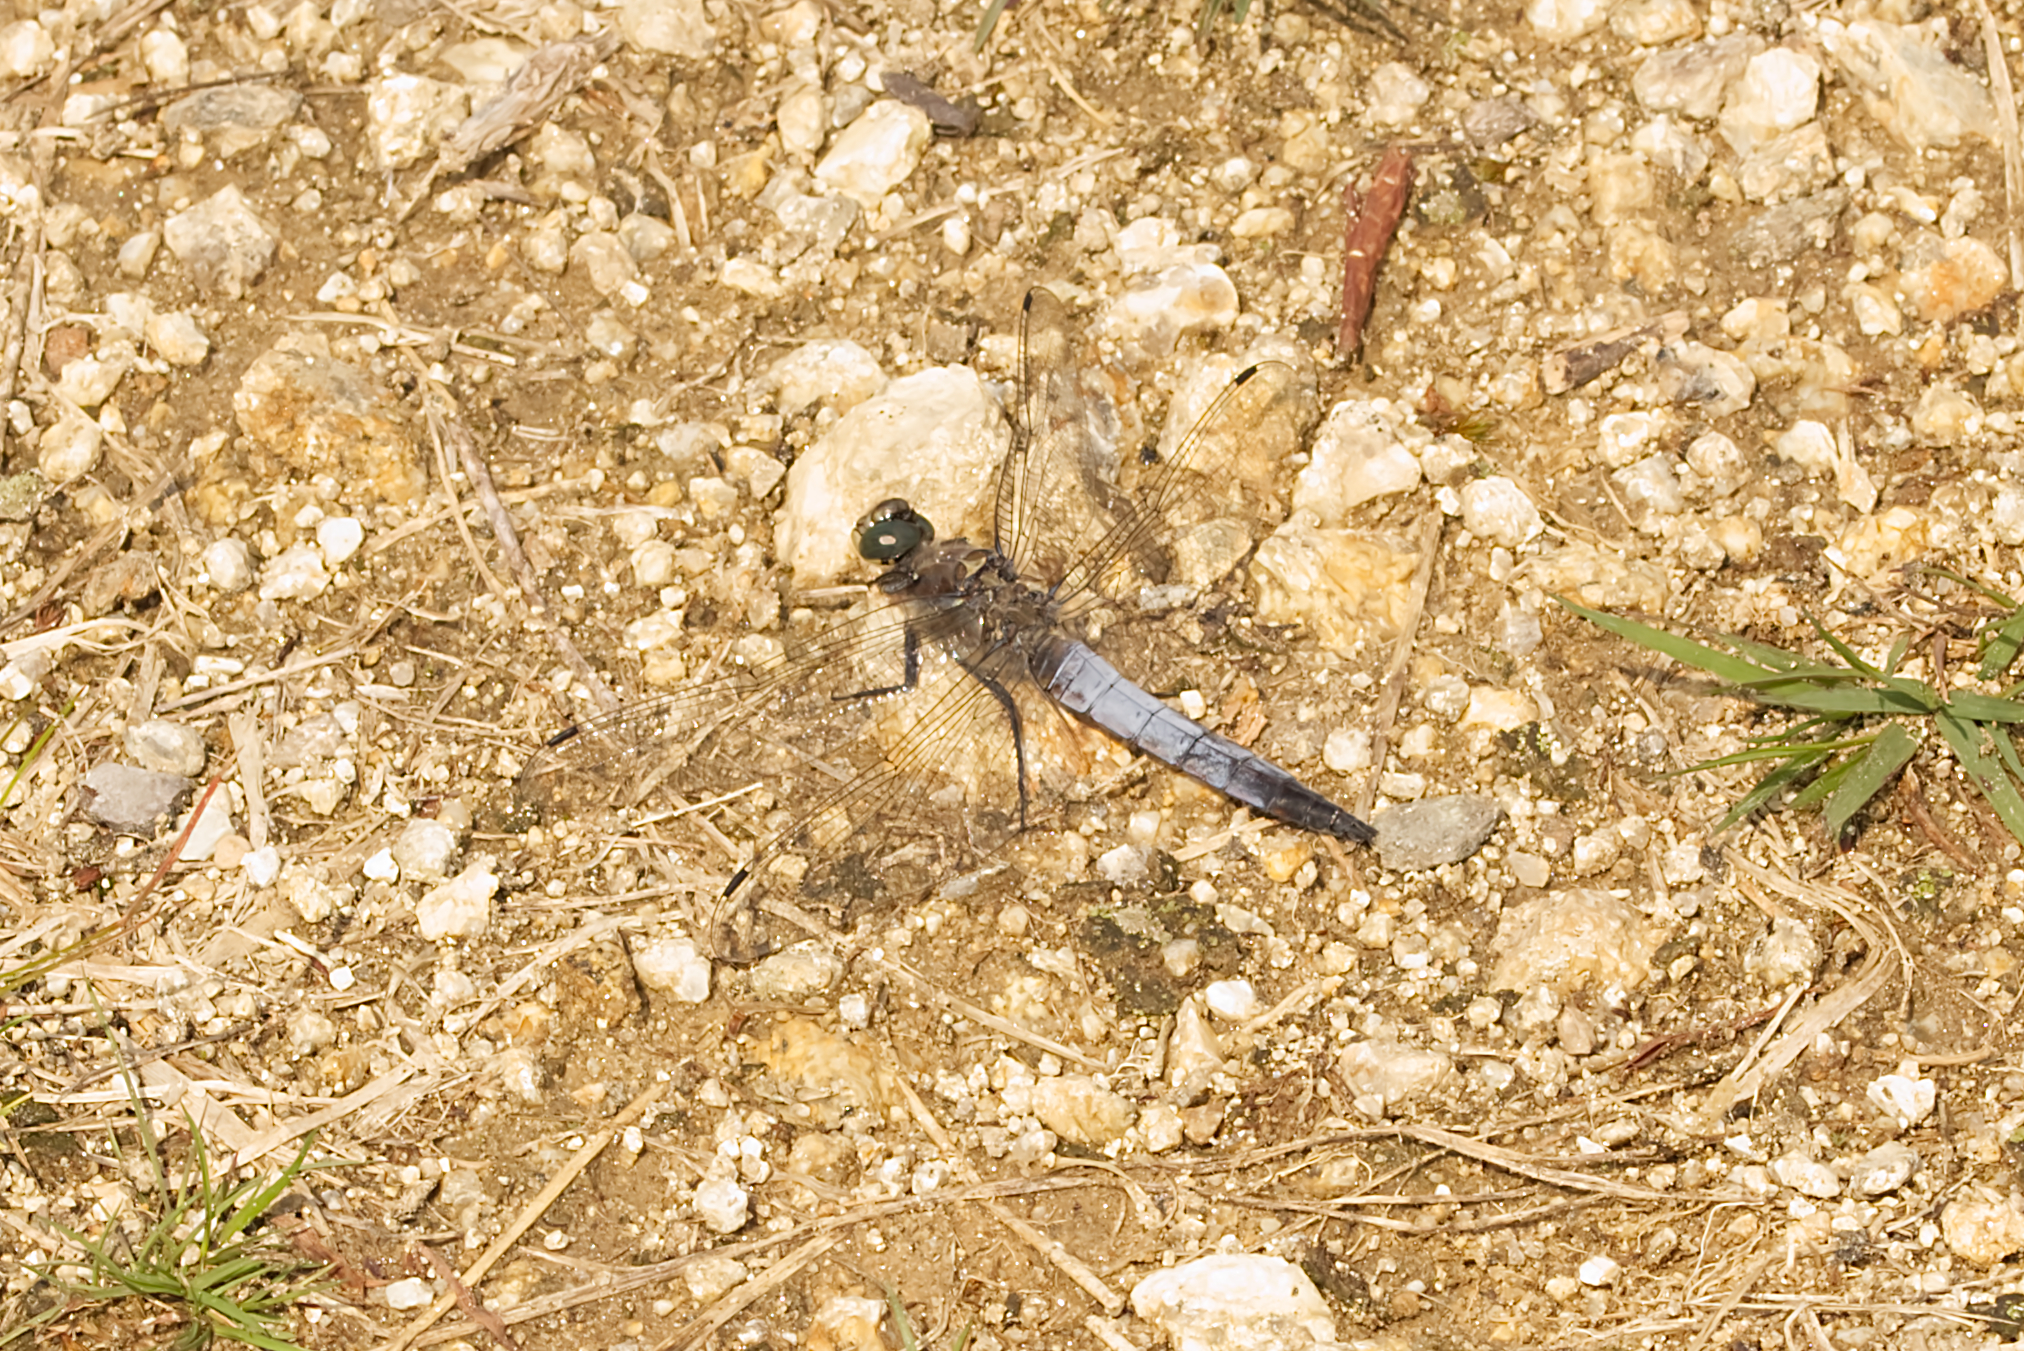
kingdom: Animalia
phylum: Arthropoda
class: Insecta
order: Odonata
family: Libellulidae
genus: Orthetrum
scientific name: Orthetrum cancellatum
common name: Black-tailed skimmer
